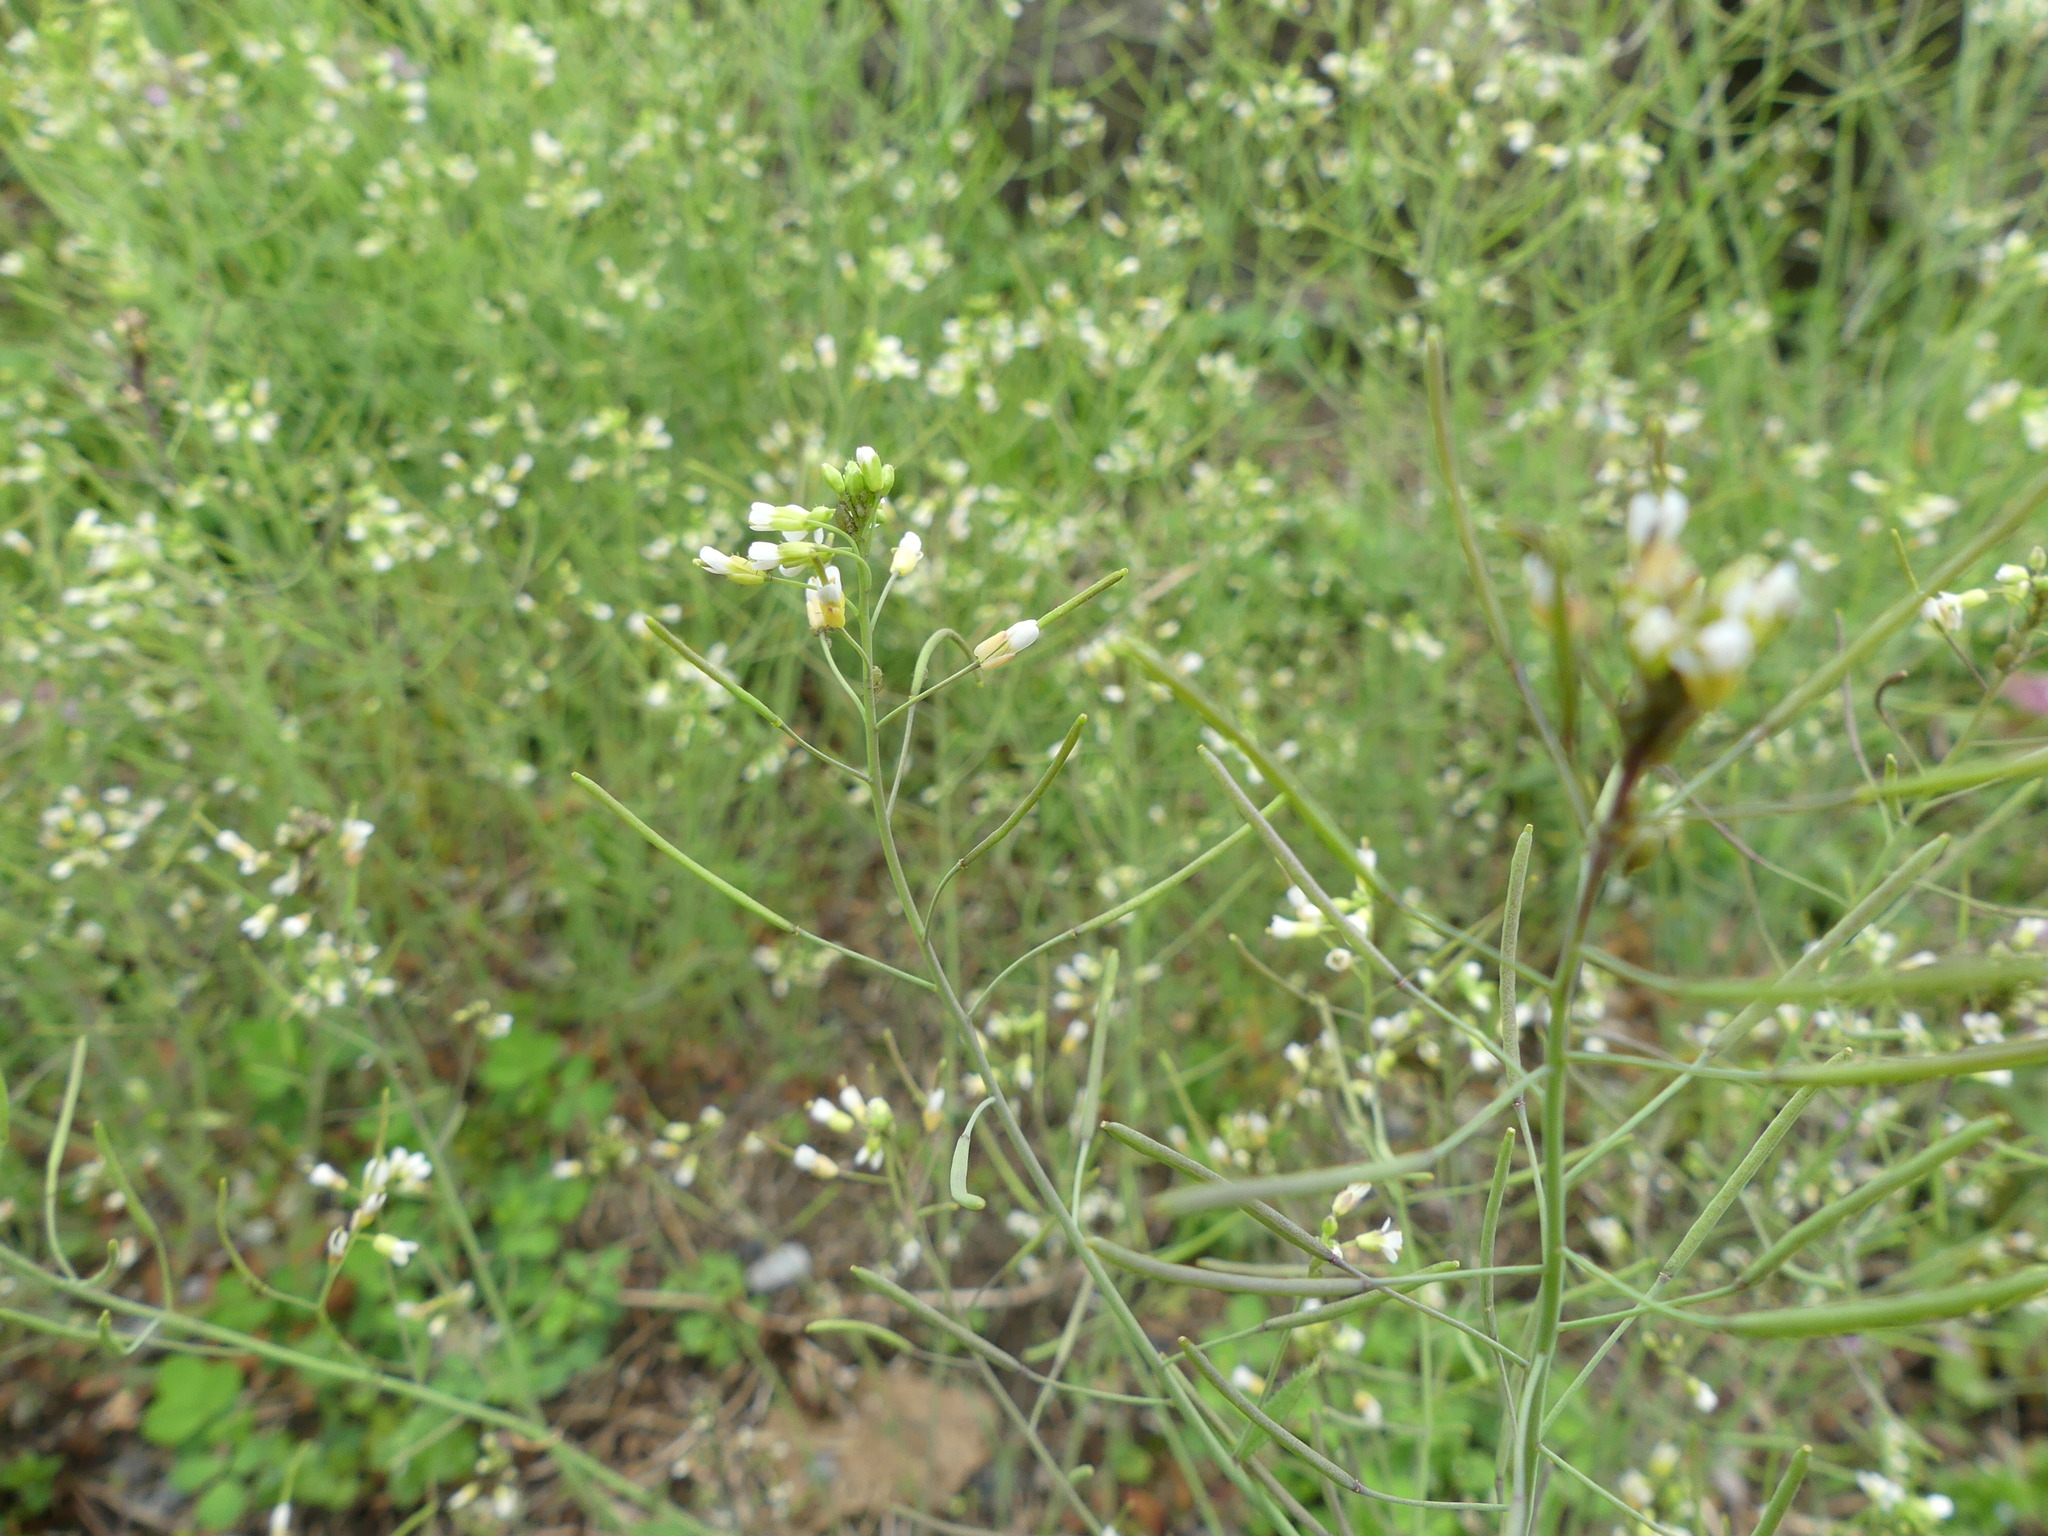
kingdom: Plantae
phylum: Tracheophyta
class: Magnoliopsida
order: Brassicales
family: Brassicaceae
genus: Arabidopsis
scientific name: Arabidopsis thaliana
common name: Thale cress
